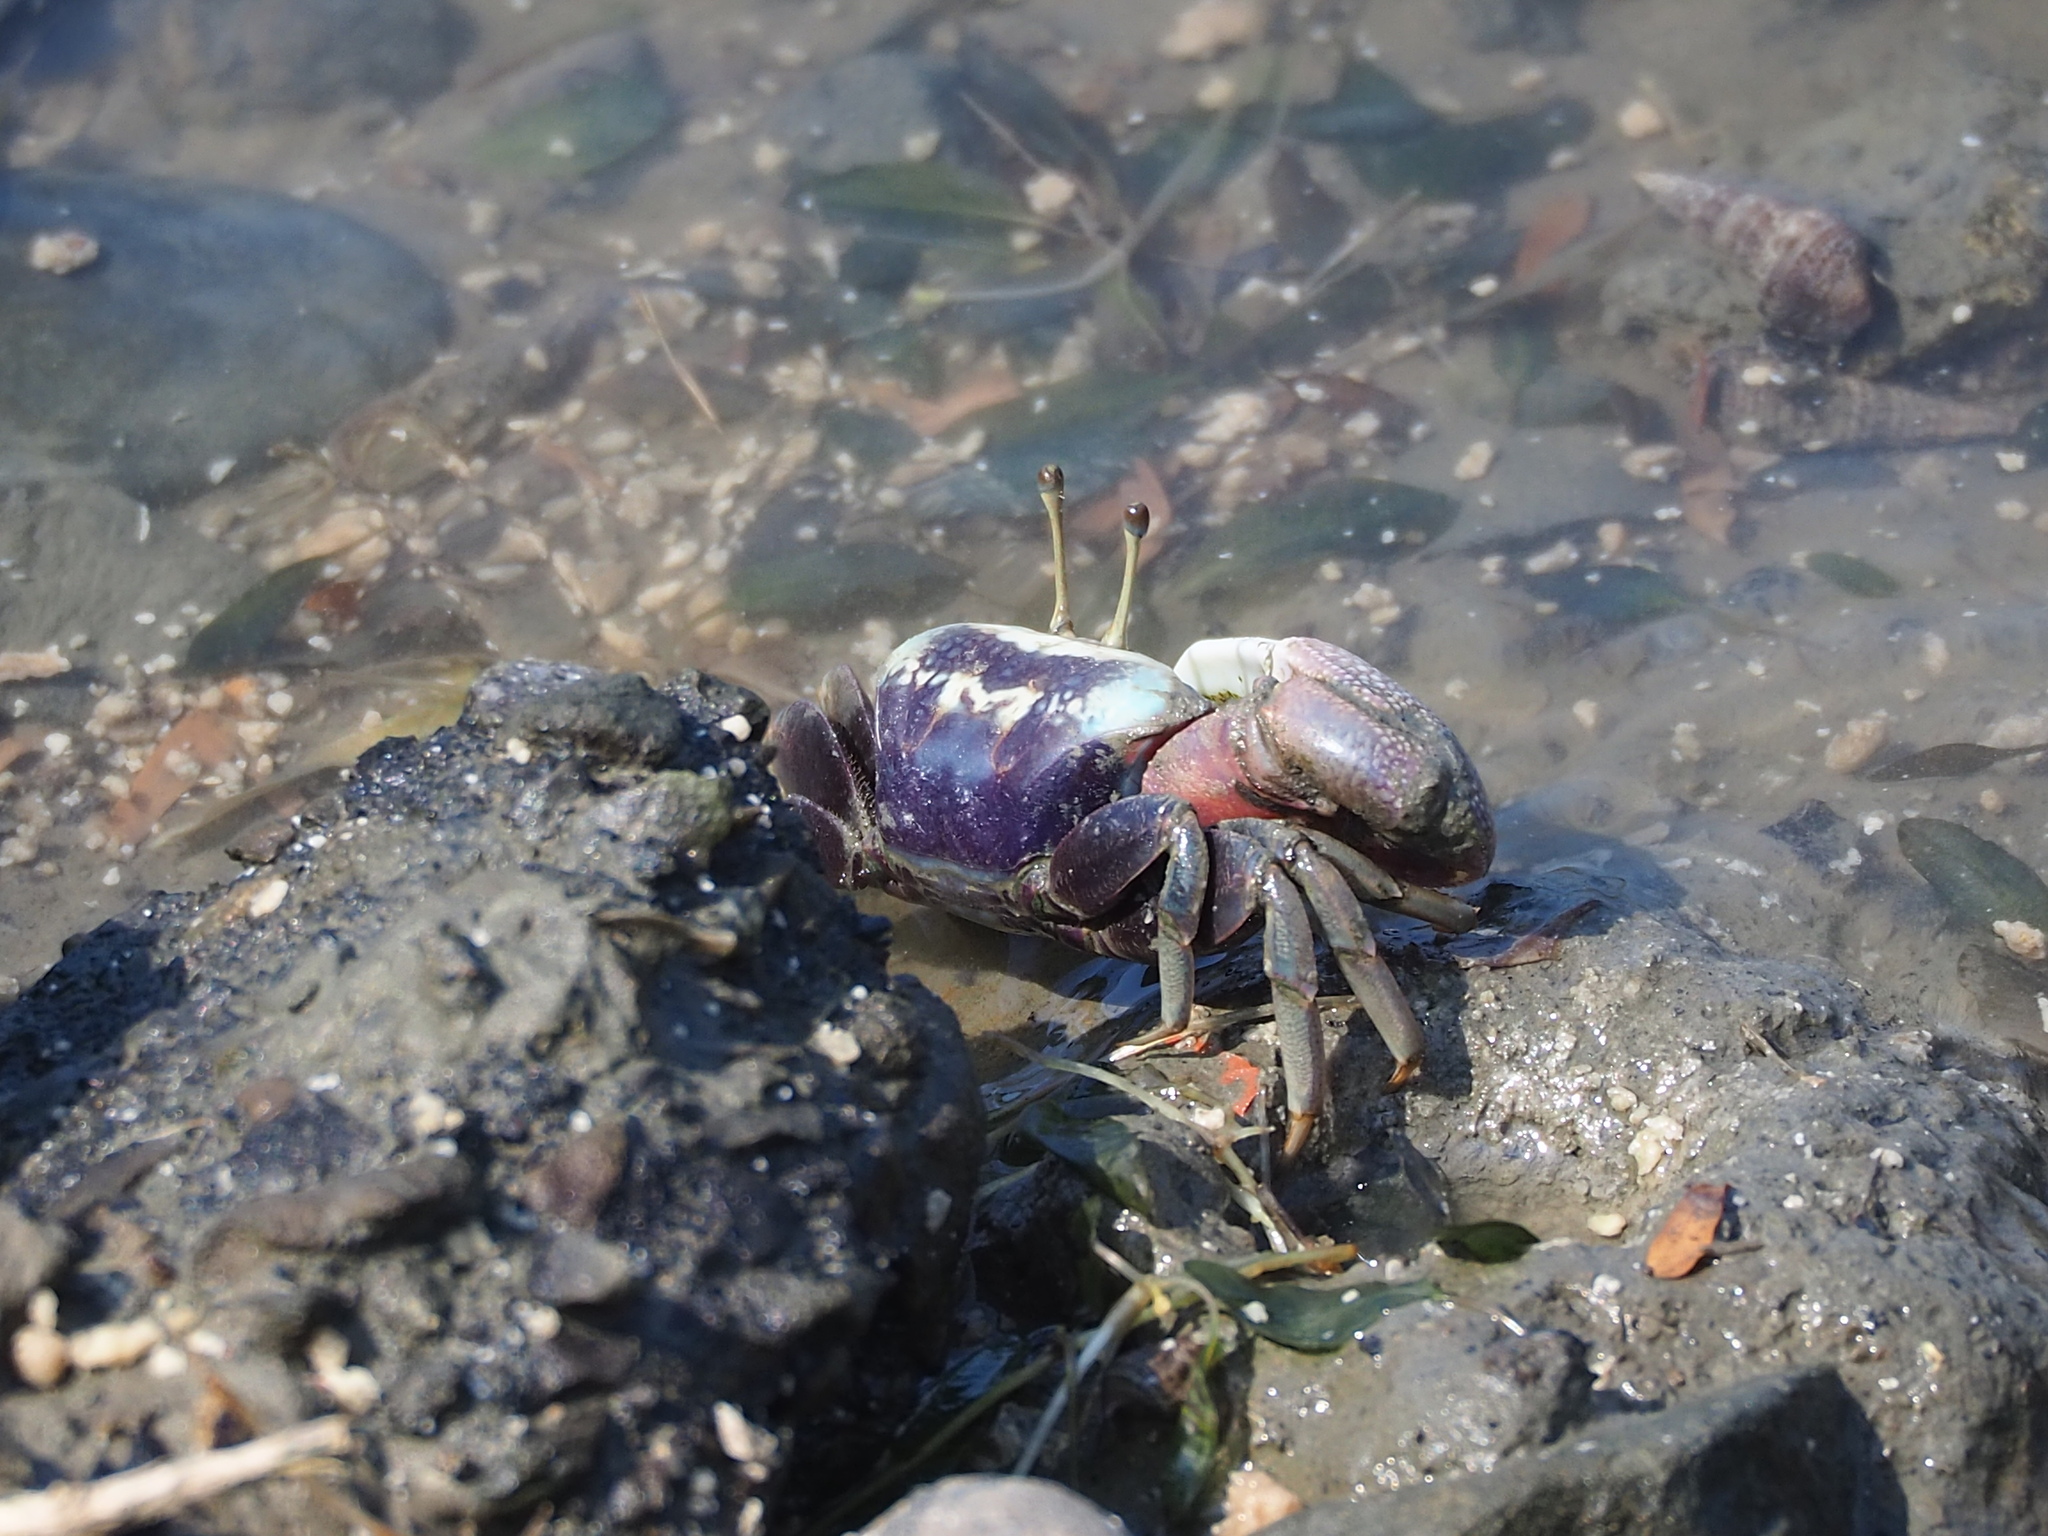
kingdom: Animalia
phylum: Arthropoda
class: Malacostraca
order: Decapoda
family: Ocypodidae
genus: Tubuca
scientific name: Tubuca arcuata
